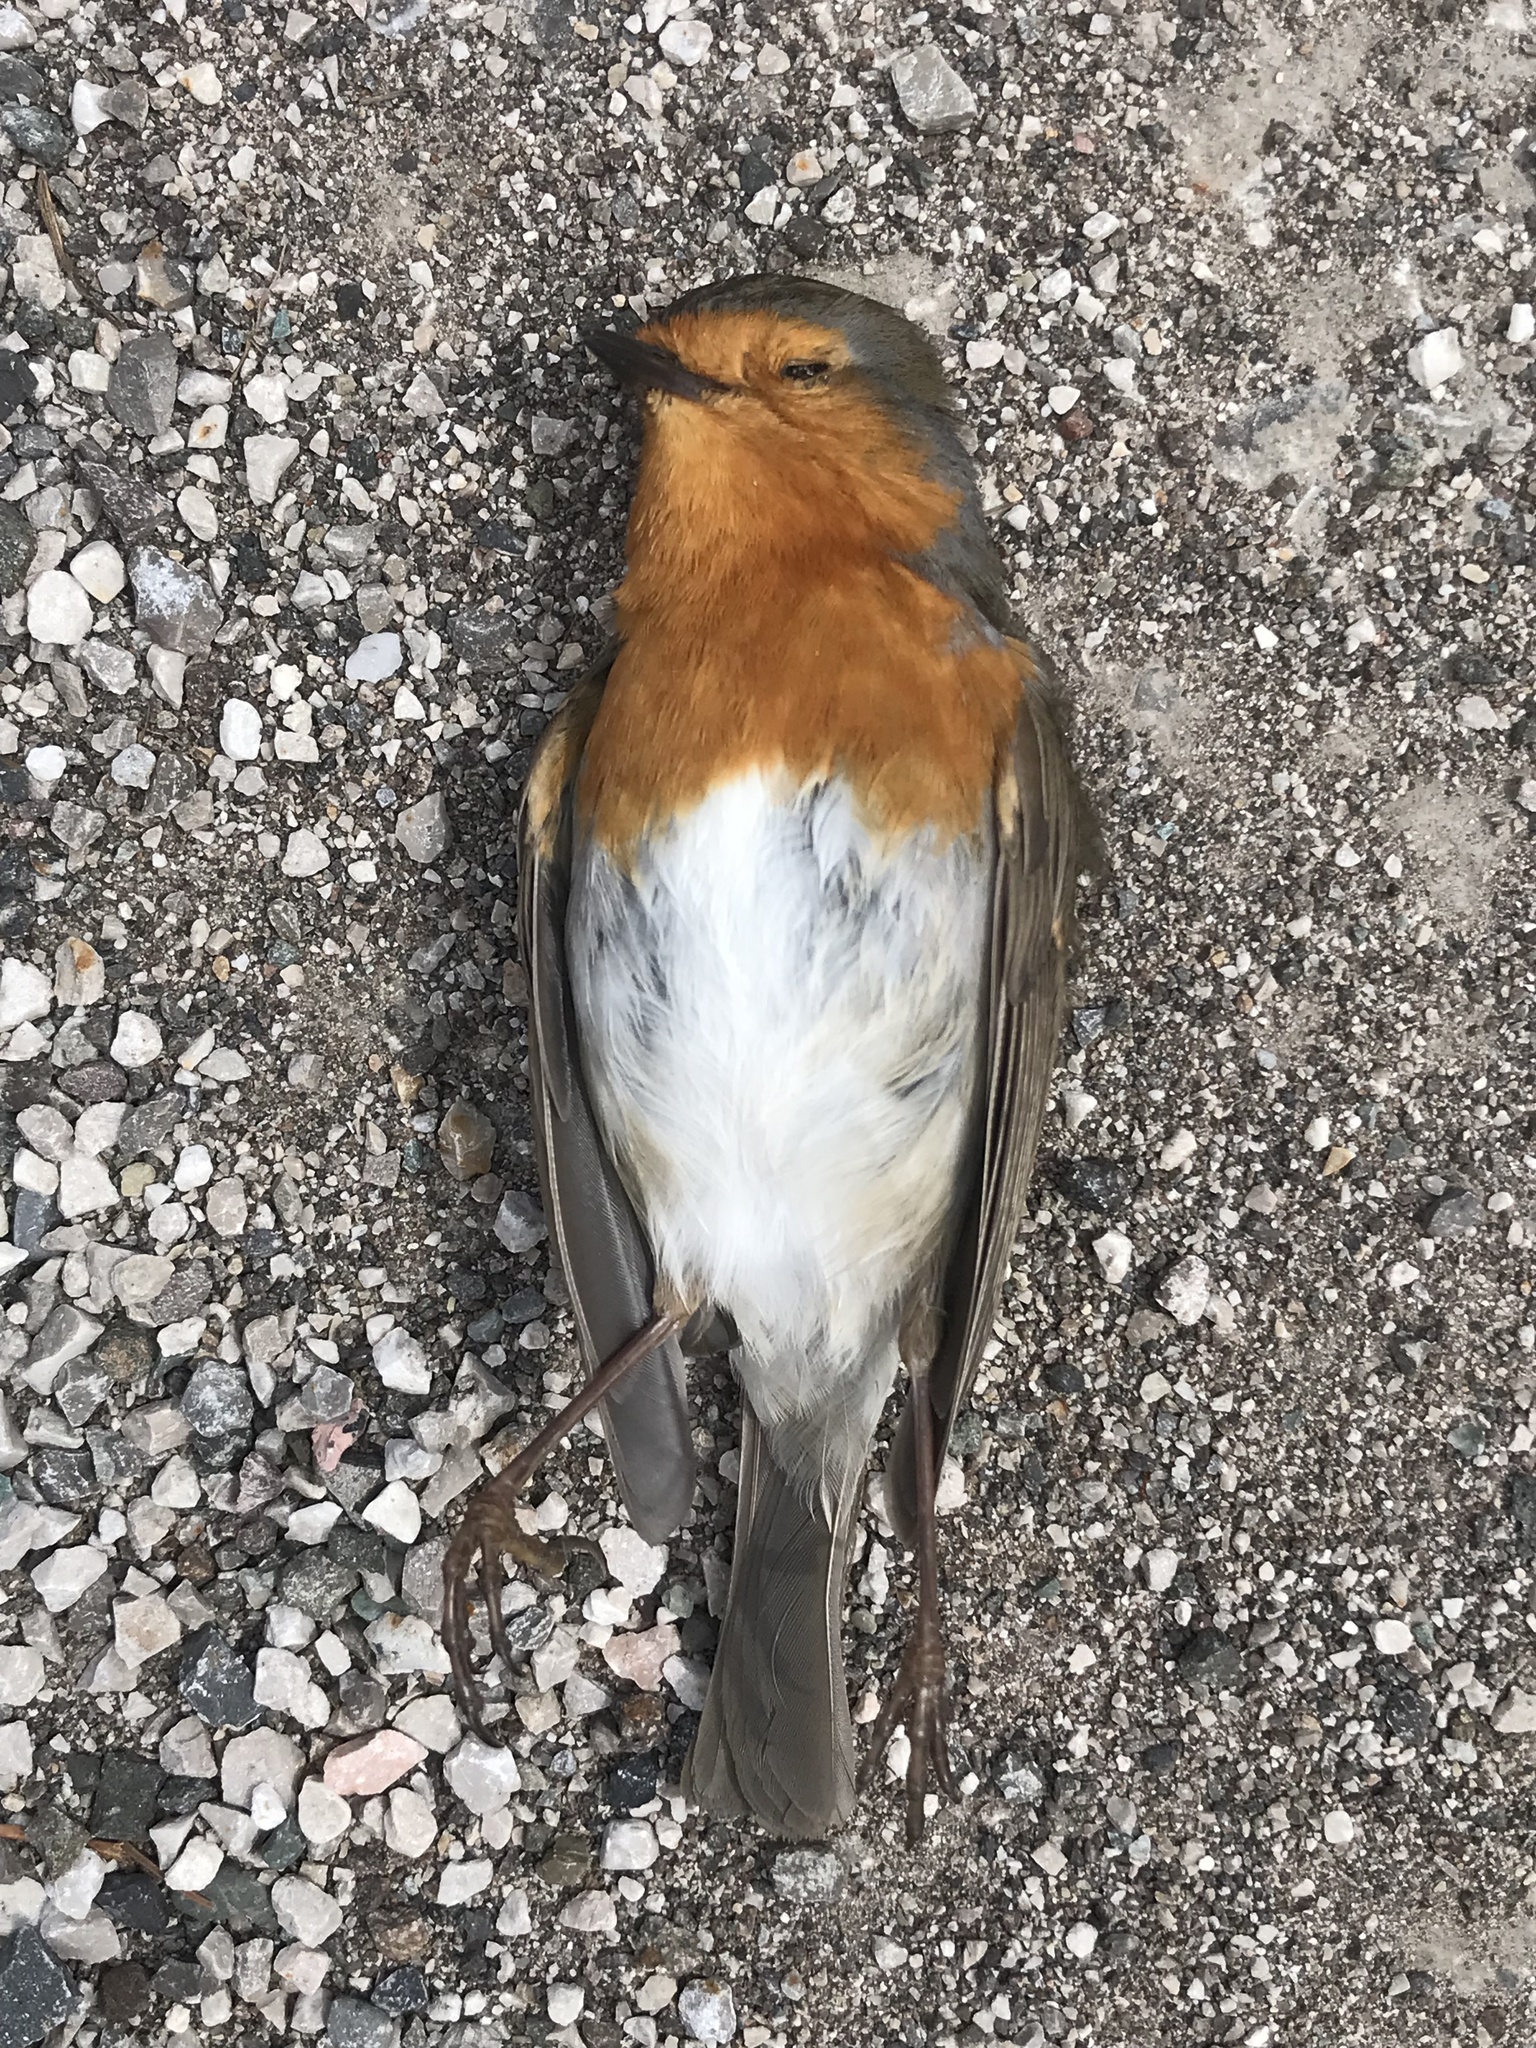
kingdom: Animalia
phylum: Chordata
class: Aves
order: Passeriformes
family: Muscicapidae
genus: Erithacus
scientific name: Erithacus rubecula
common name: European robin
